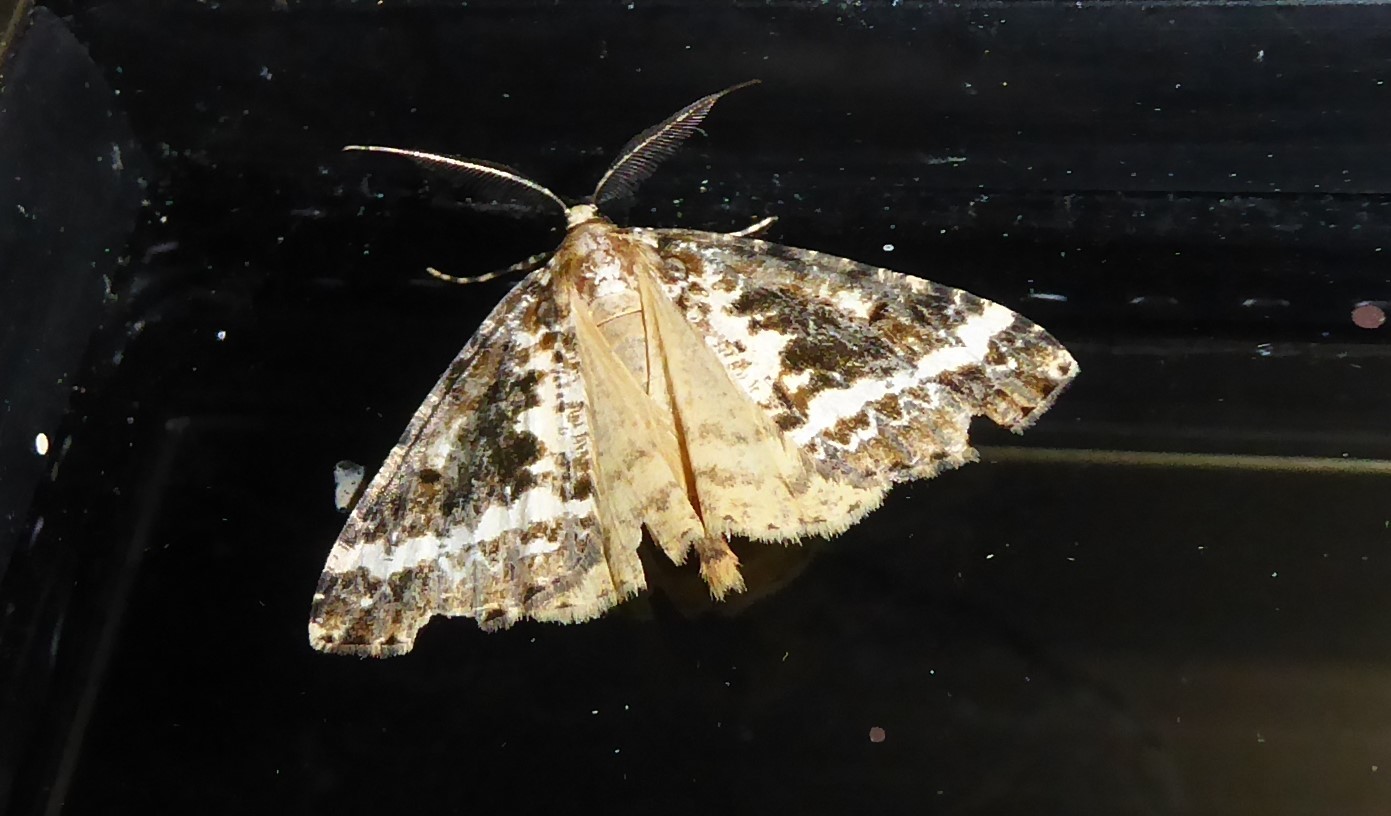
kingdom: Animalia
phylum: Arthropoda
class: Insecta
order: Lepidoptera
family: Geometridae
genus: Pseudocoremia
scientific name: Pseudocoremia leucelaea
